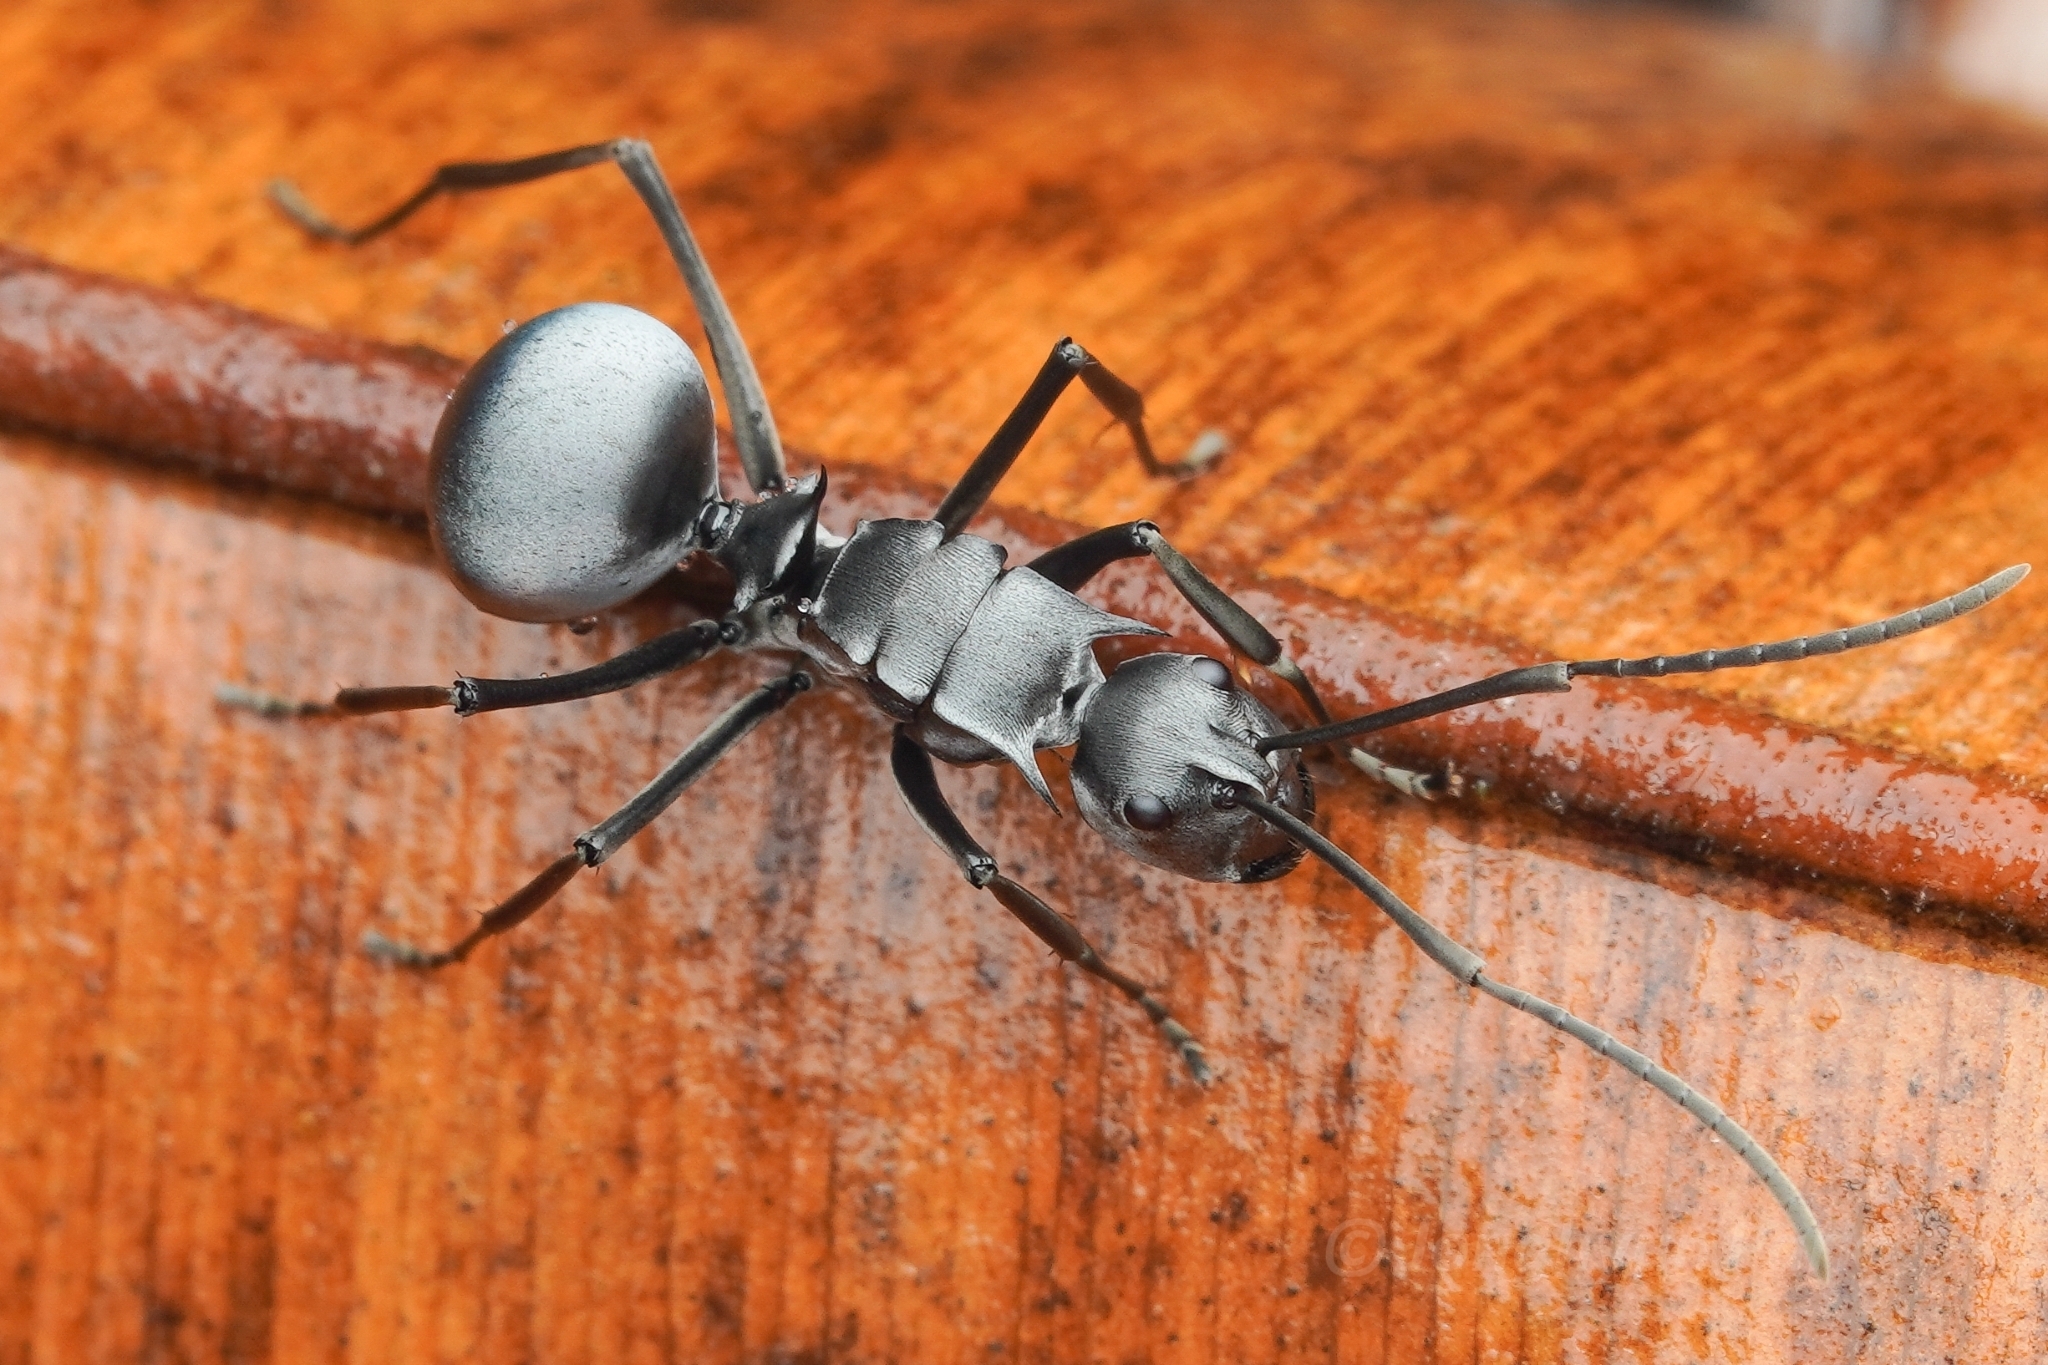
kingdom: Animalia
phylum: Arthropoda
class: Insecta
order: Hymenoptera
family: Formicidae
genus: Polyrhachis
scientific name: Polyrhachis pruinosa
